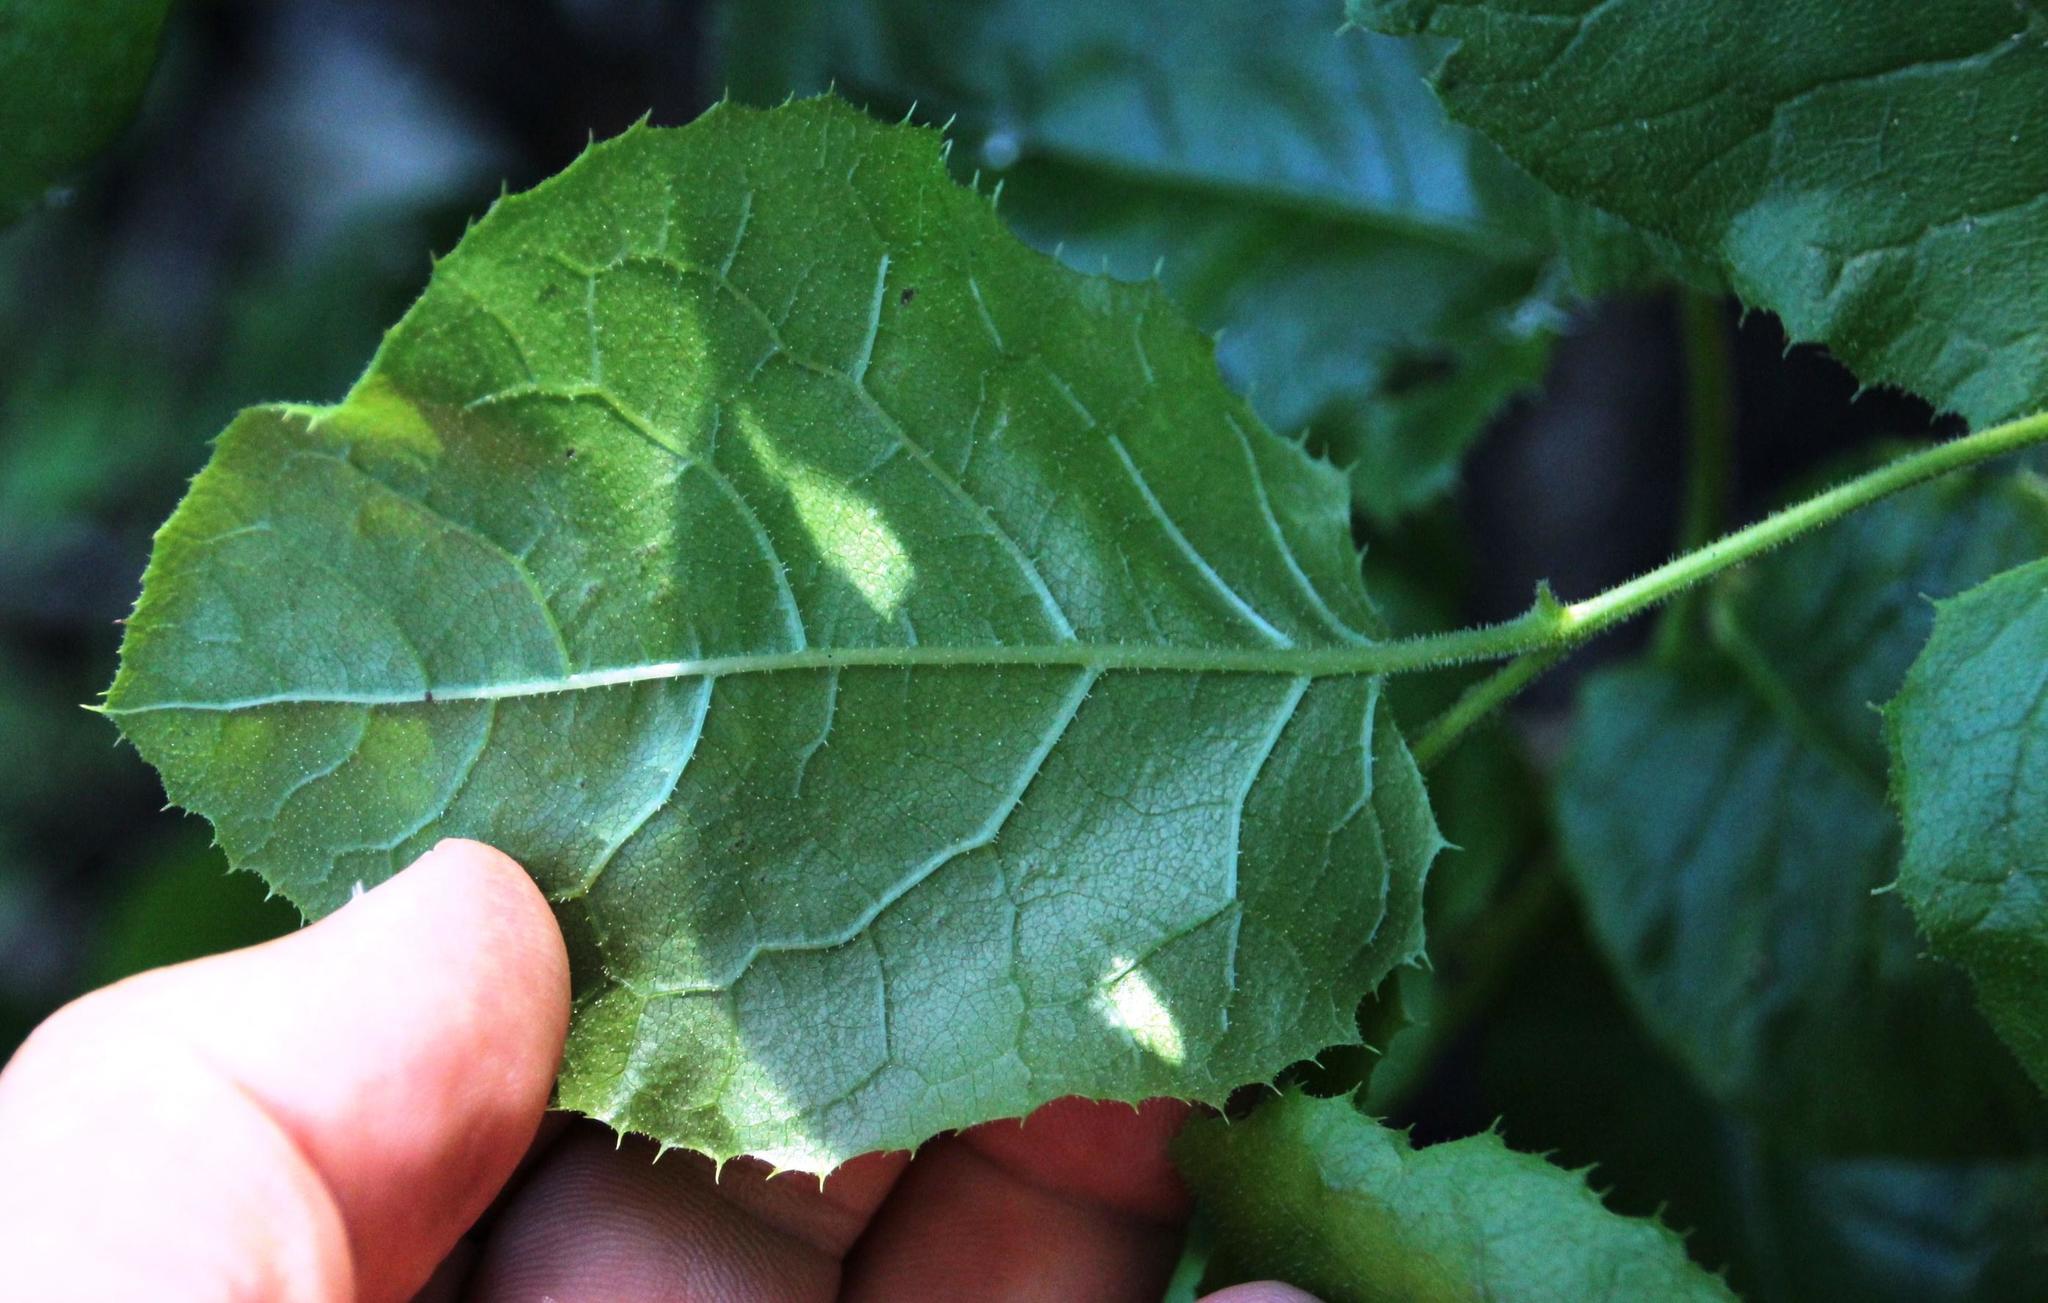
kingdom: Plantae
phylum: Tracheophyta
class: Magnoliopsida
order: Asterales
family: Asteraceae
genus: Proustia
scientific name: Proustia pyrifolia
